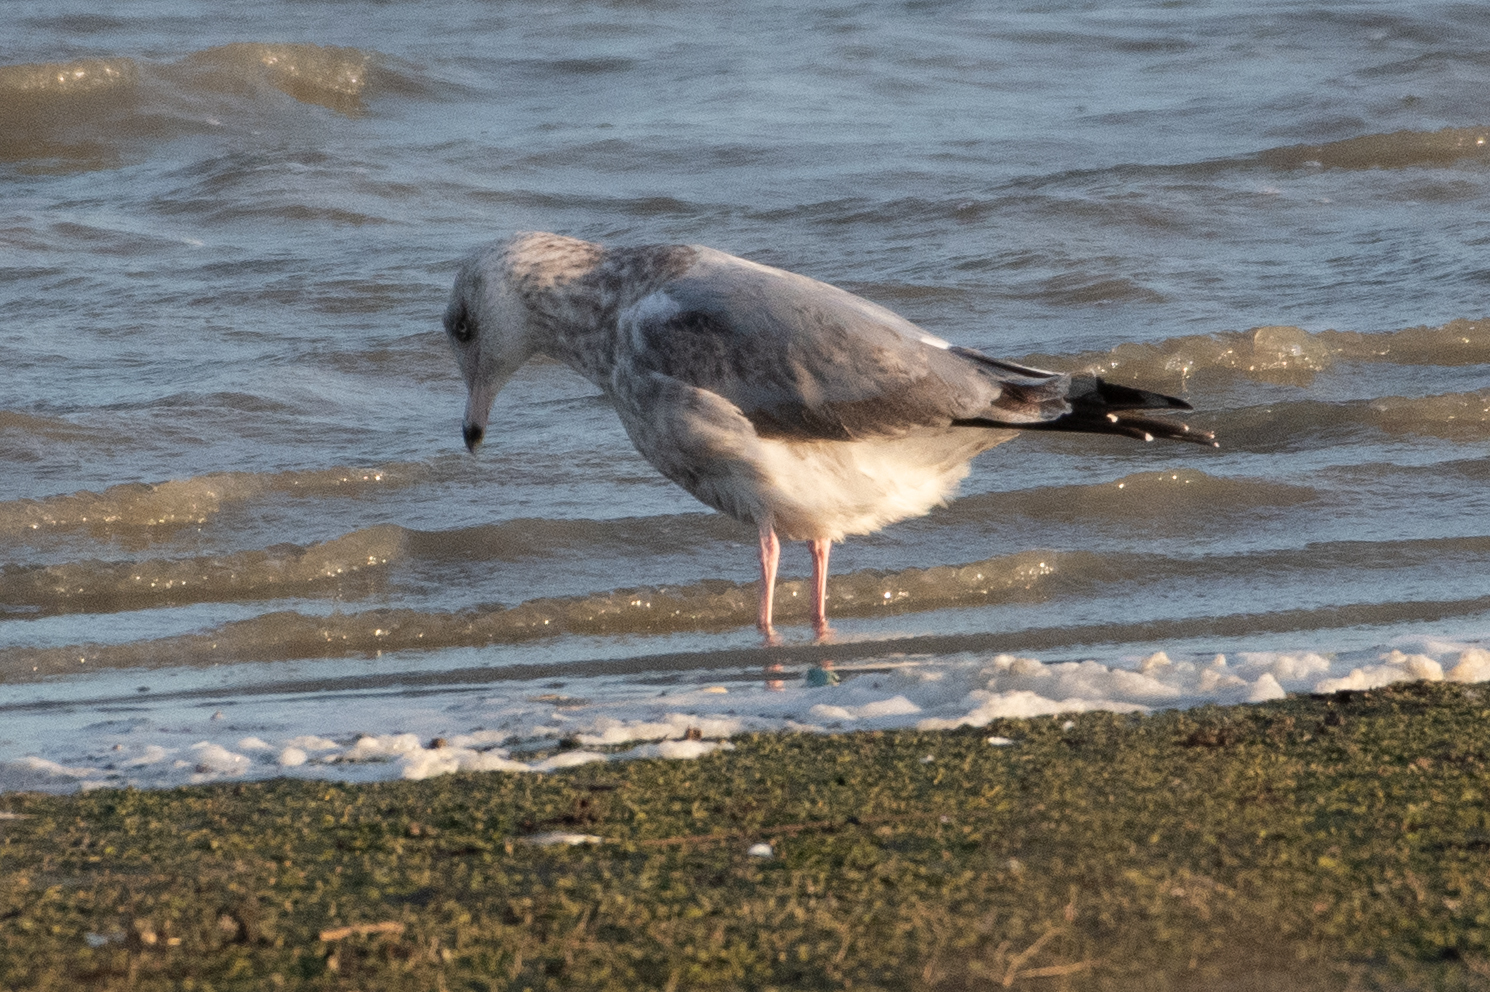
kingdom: Animalia
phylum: Chordata
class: Aves
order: Charadriiformes
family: Laridae
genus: Larus
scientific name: Larus argentatus
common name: Herring gull
